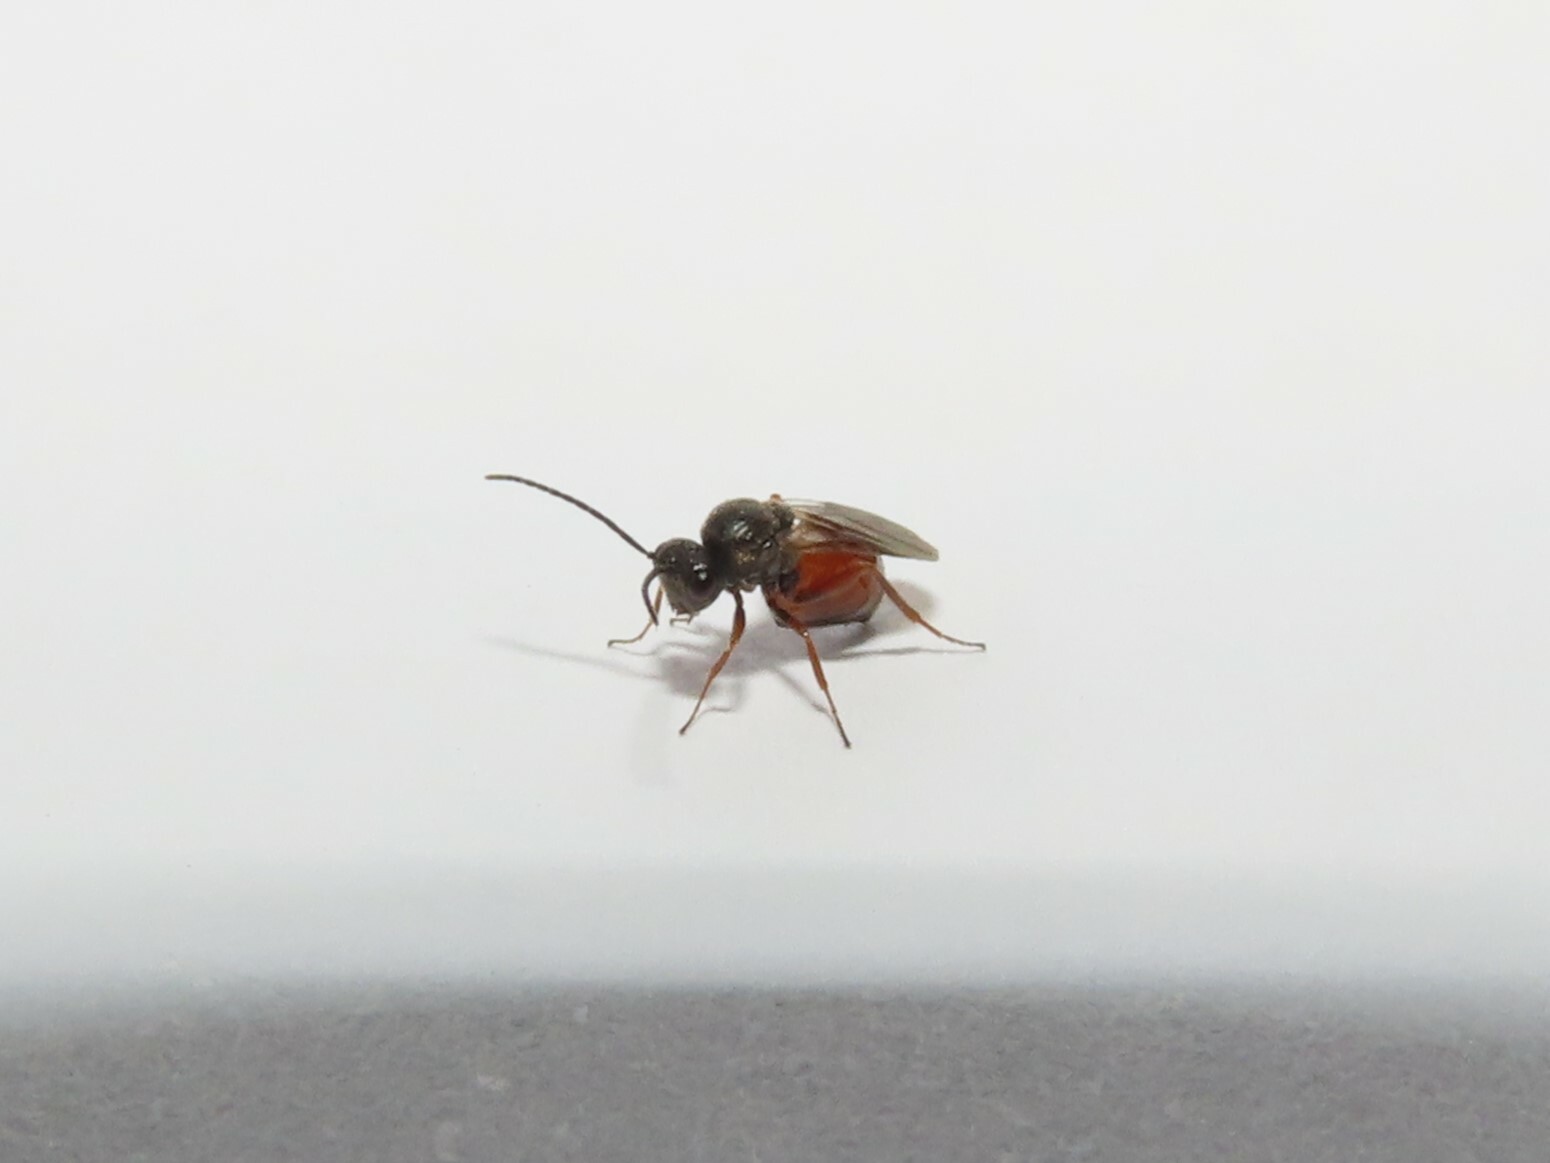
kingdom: Animalia
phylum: Arthropoda
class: Insecta
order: Hymenoptera
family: Cynipidae
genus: Diplolepis
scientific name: Diplolepis rosae
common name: Bedeguar gall
